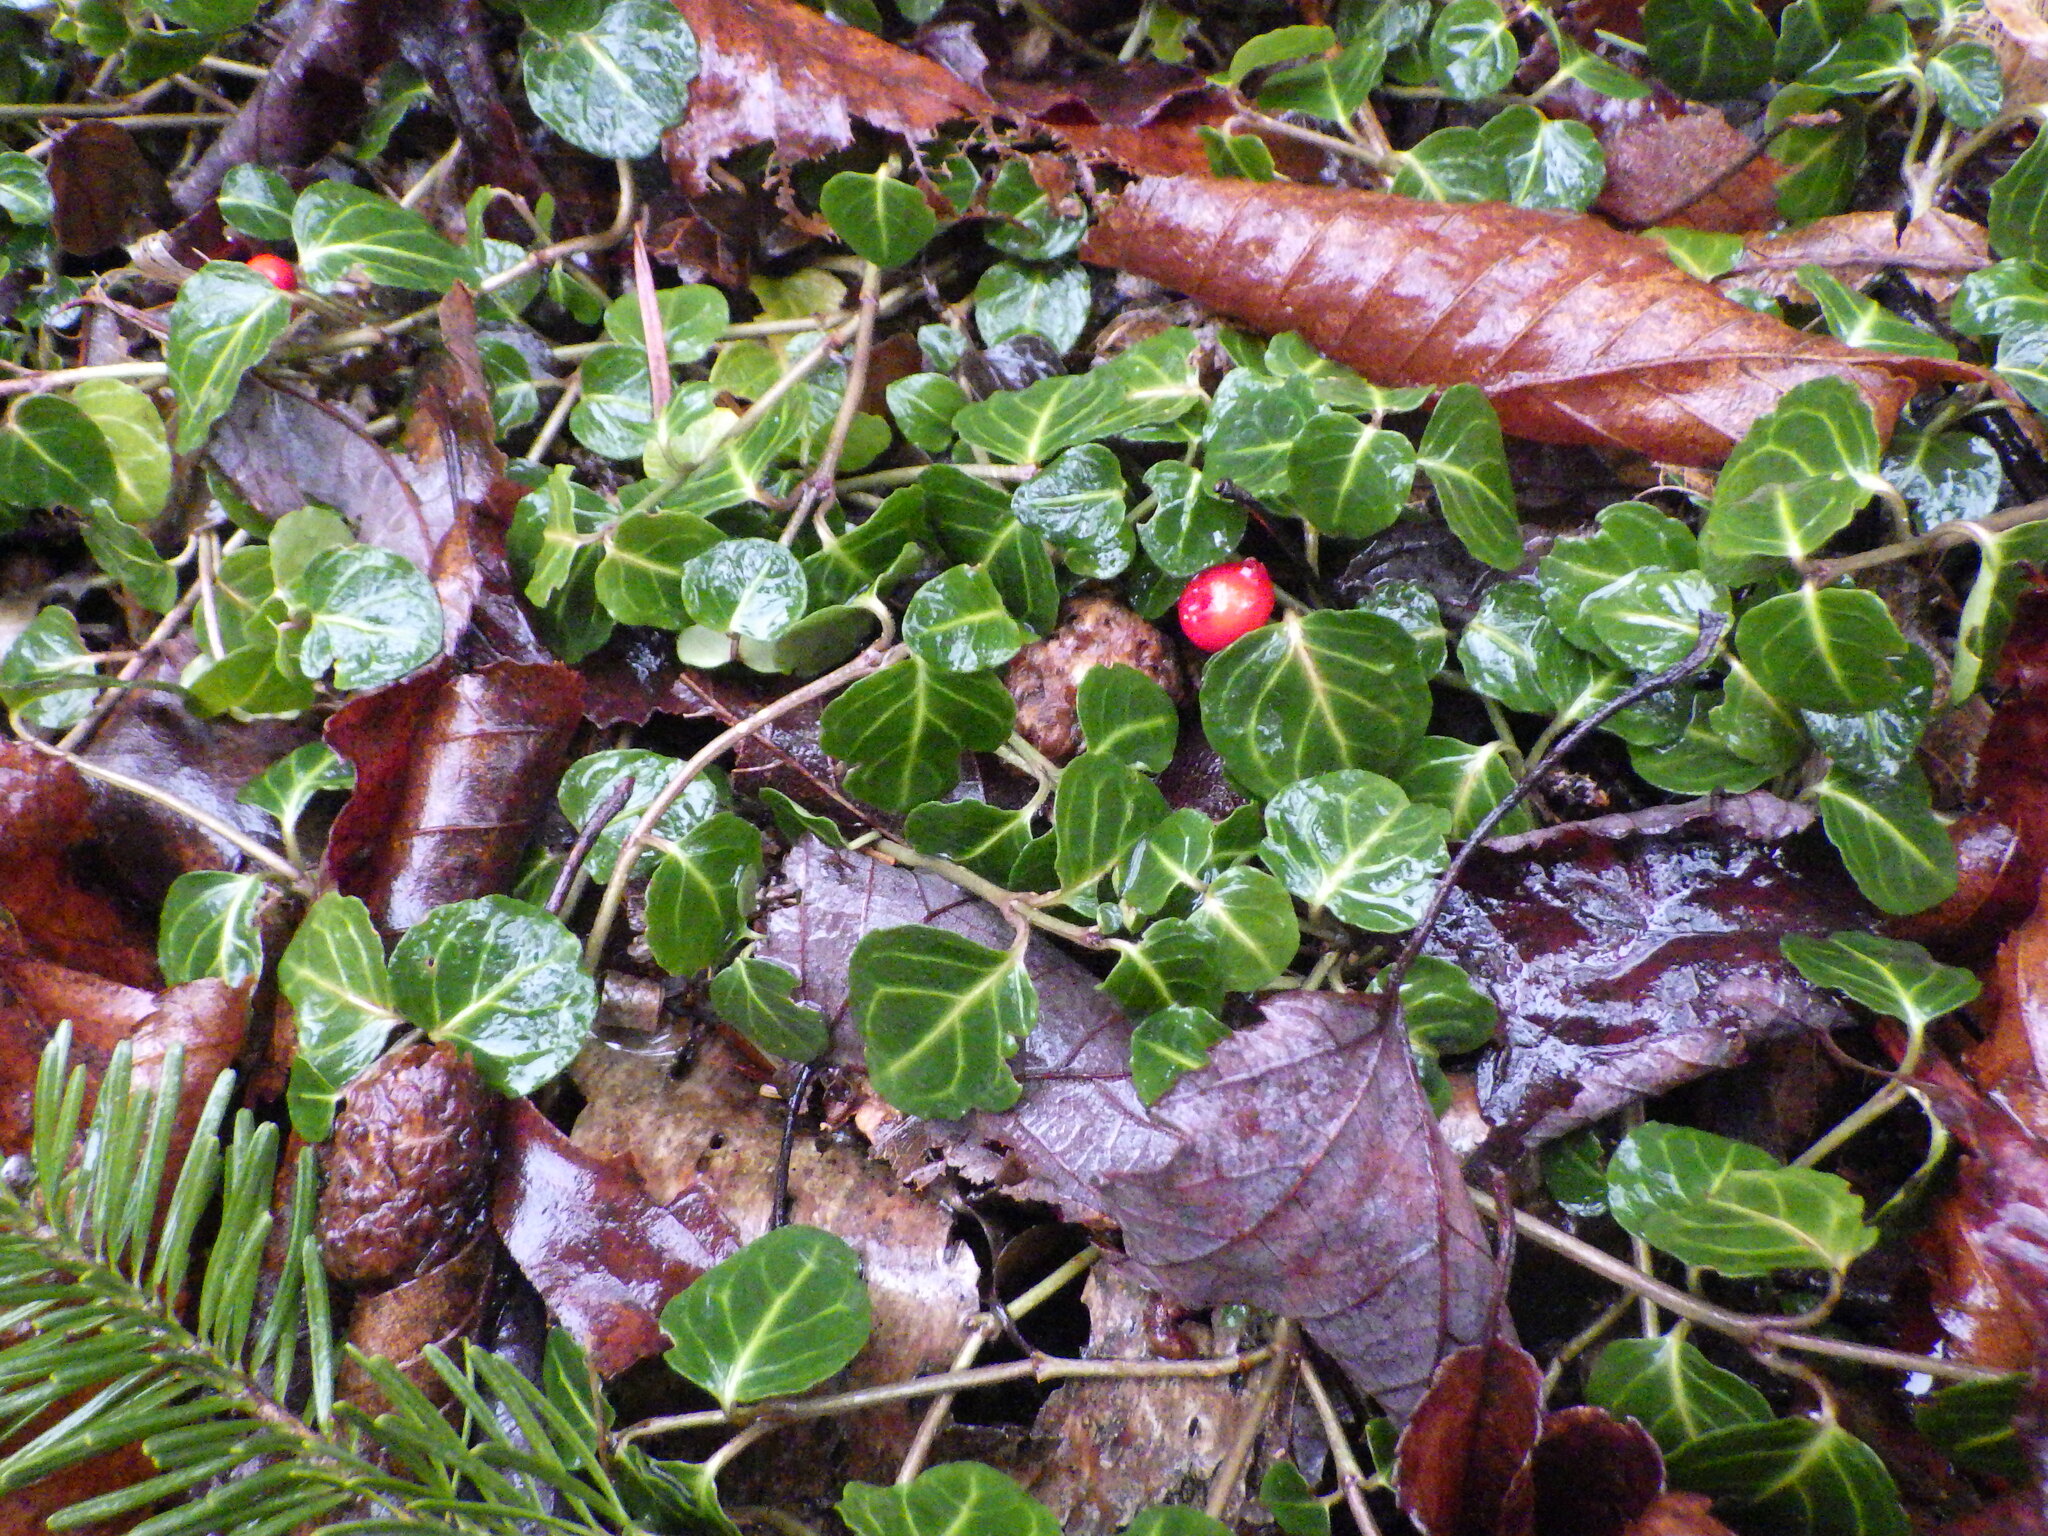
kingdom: Plantae
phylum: Tracheophyta
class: Magnoliopsida
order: Gentianales
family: Rubiaceae
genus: Mitchella
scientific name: Mitchella repens
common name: Partridge-berry
